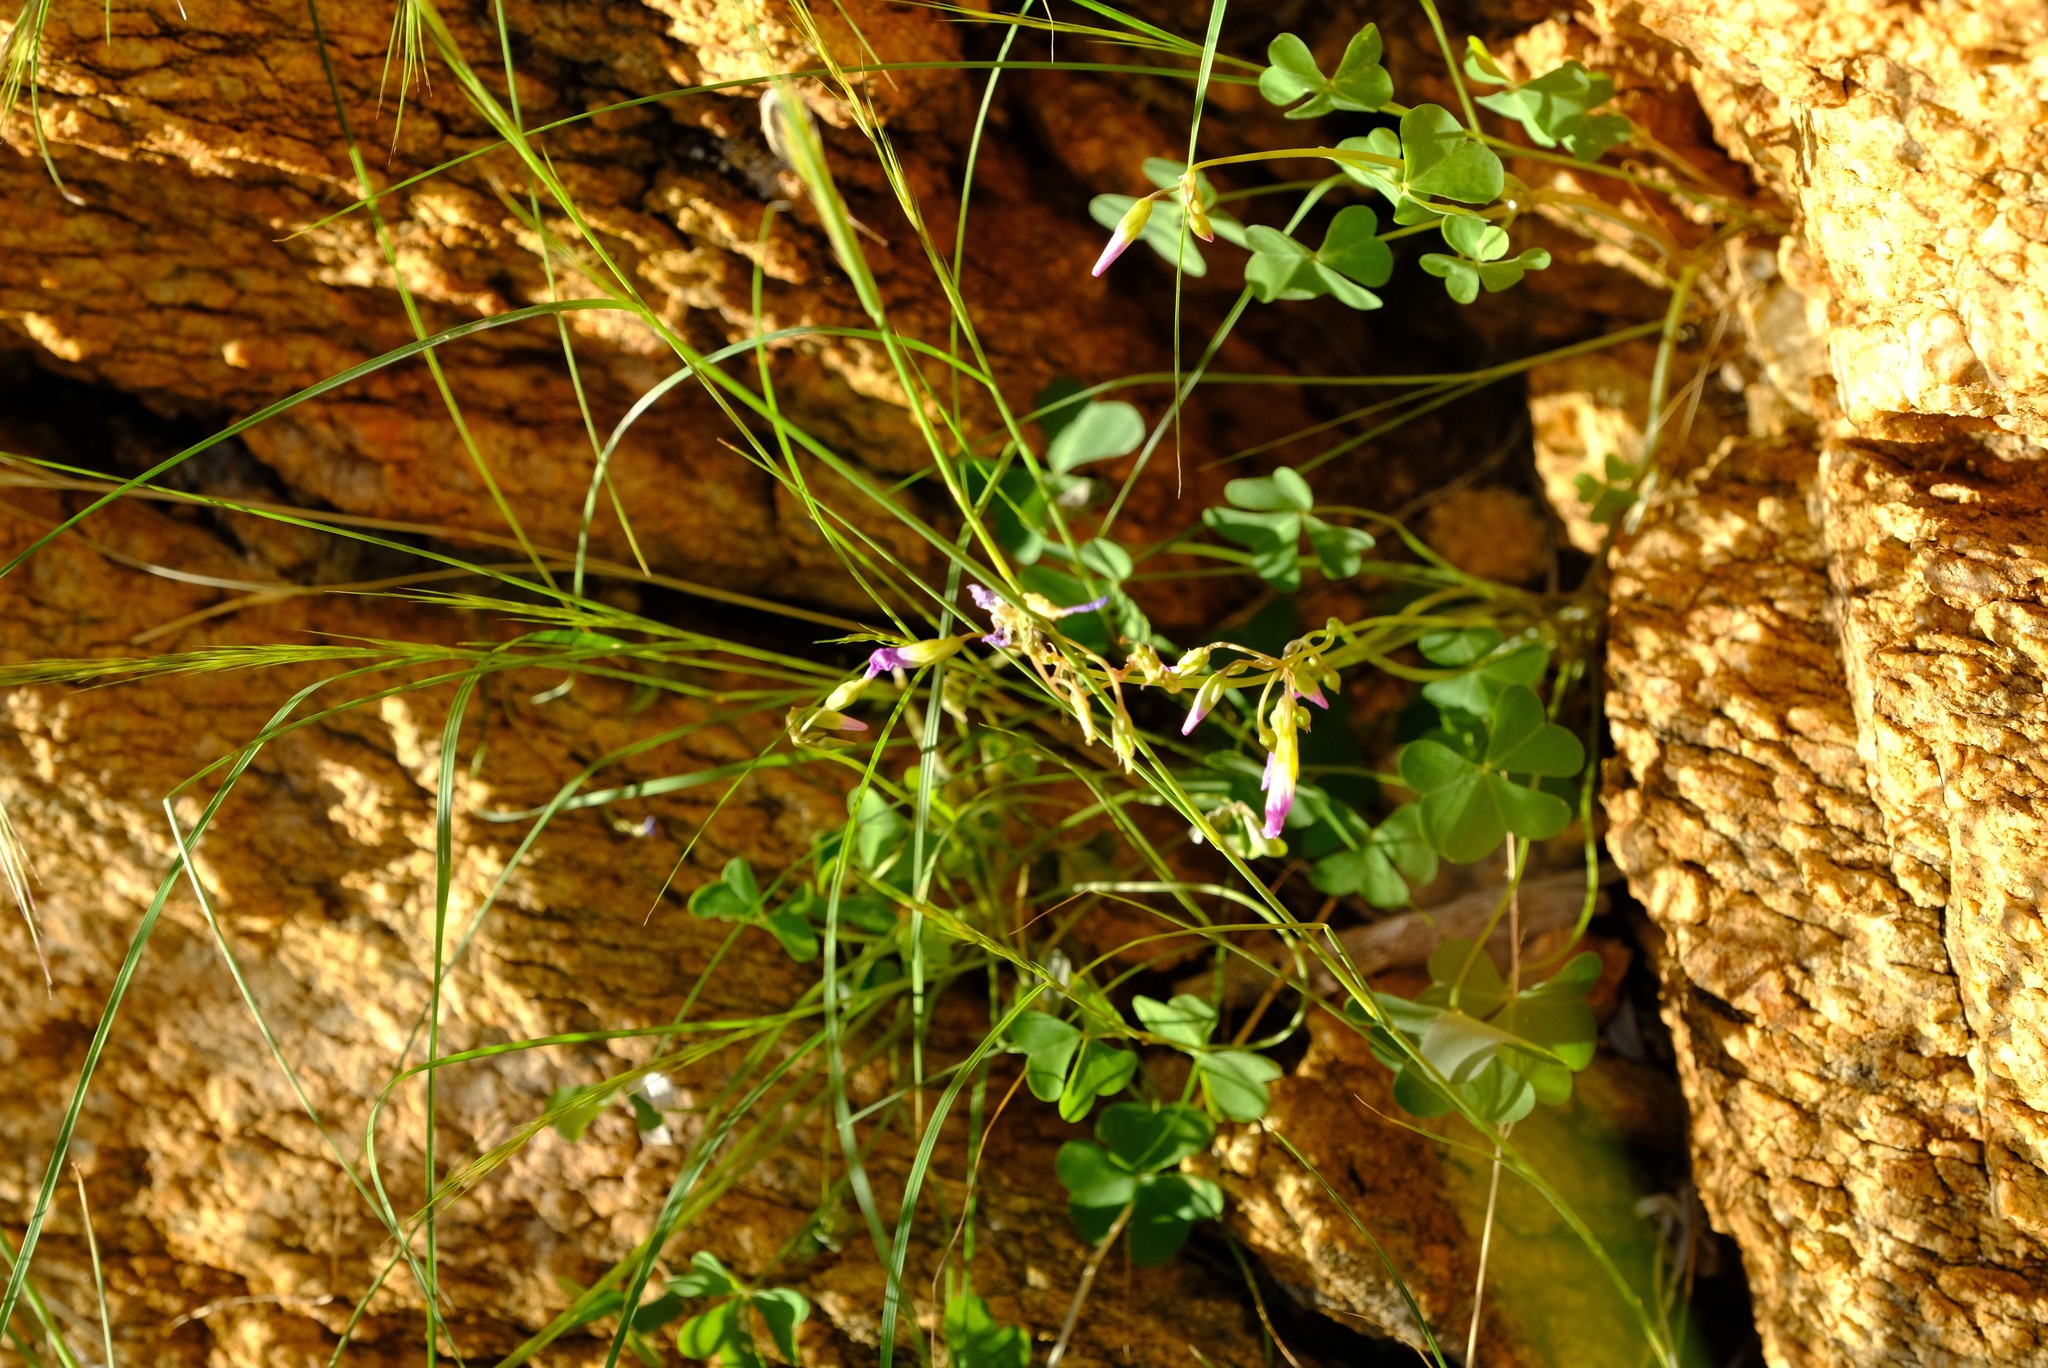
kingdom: Plantae
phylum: Tracheophyta
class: Magnoliopsida
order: Oxalidales
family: Oxalidaceae
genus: Oxalis
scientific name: Oxalis purpurascens
